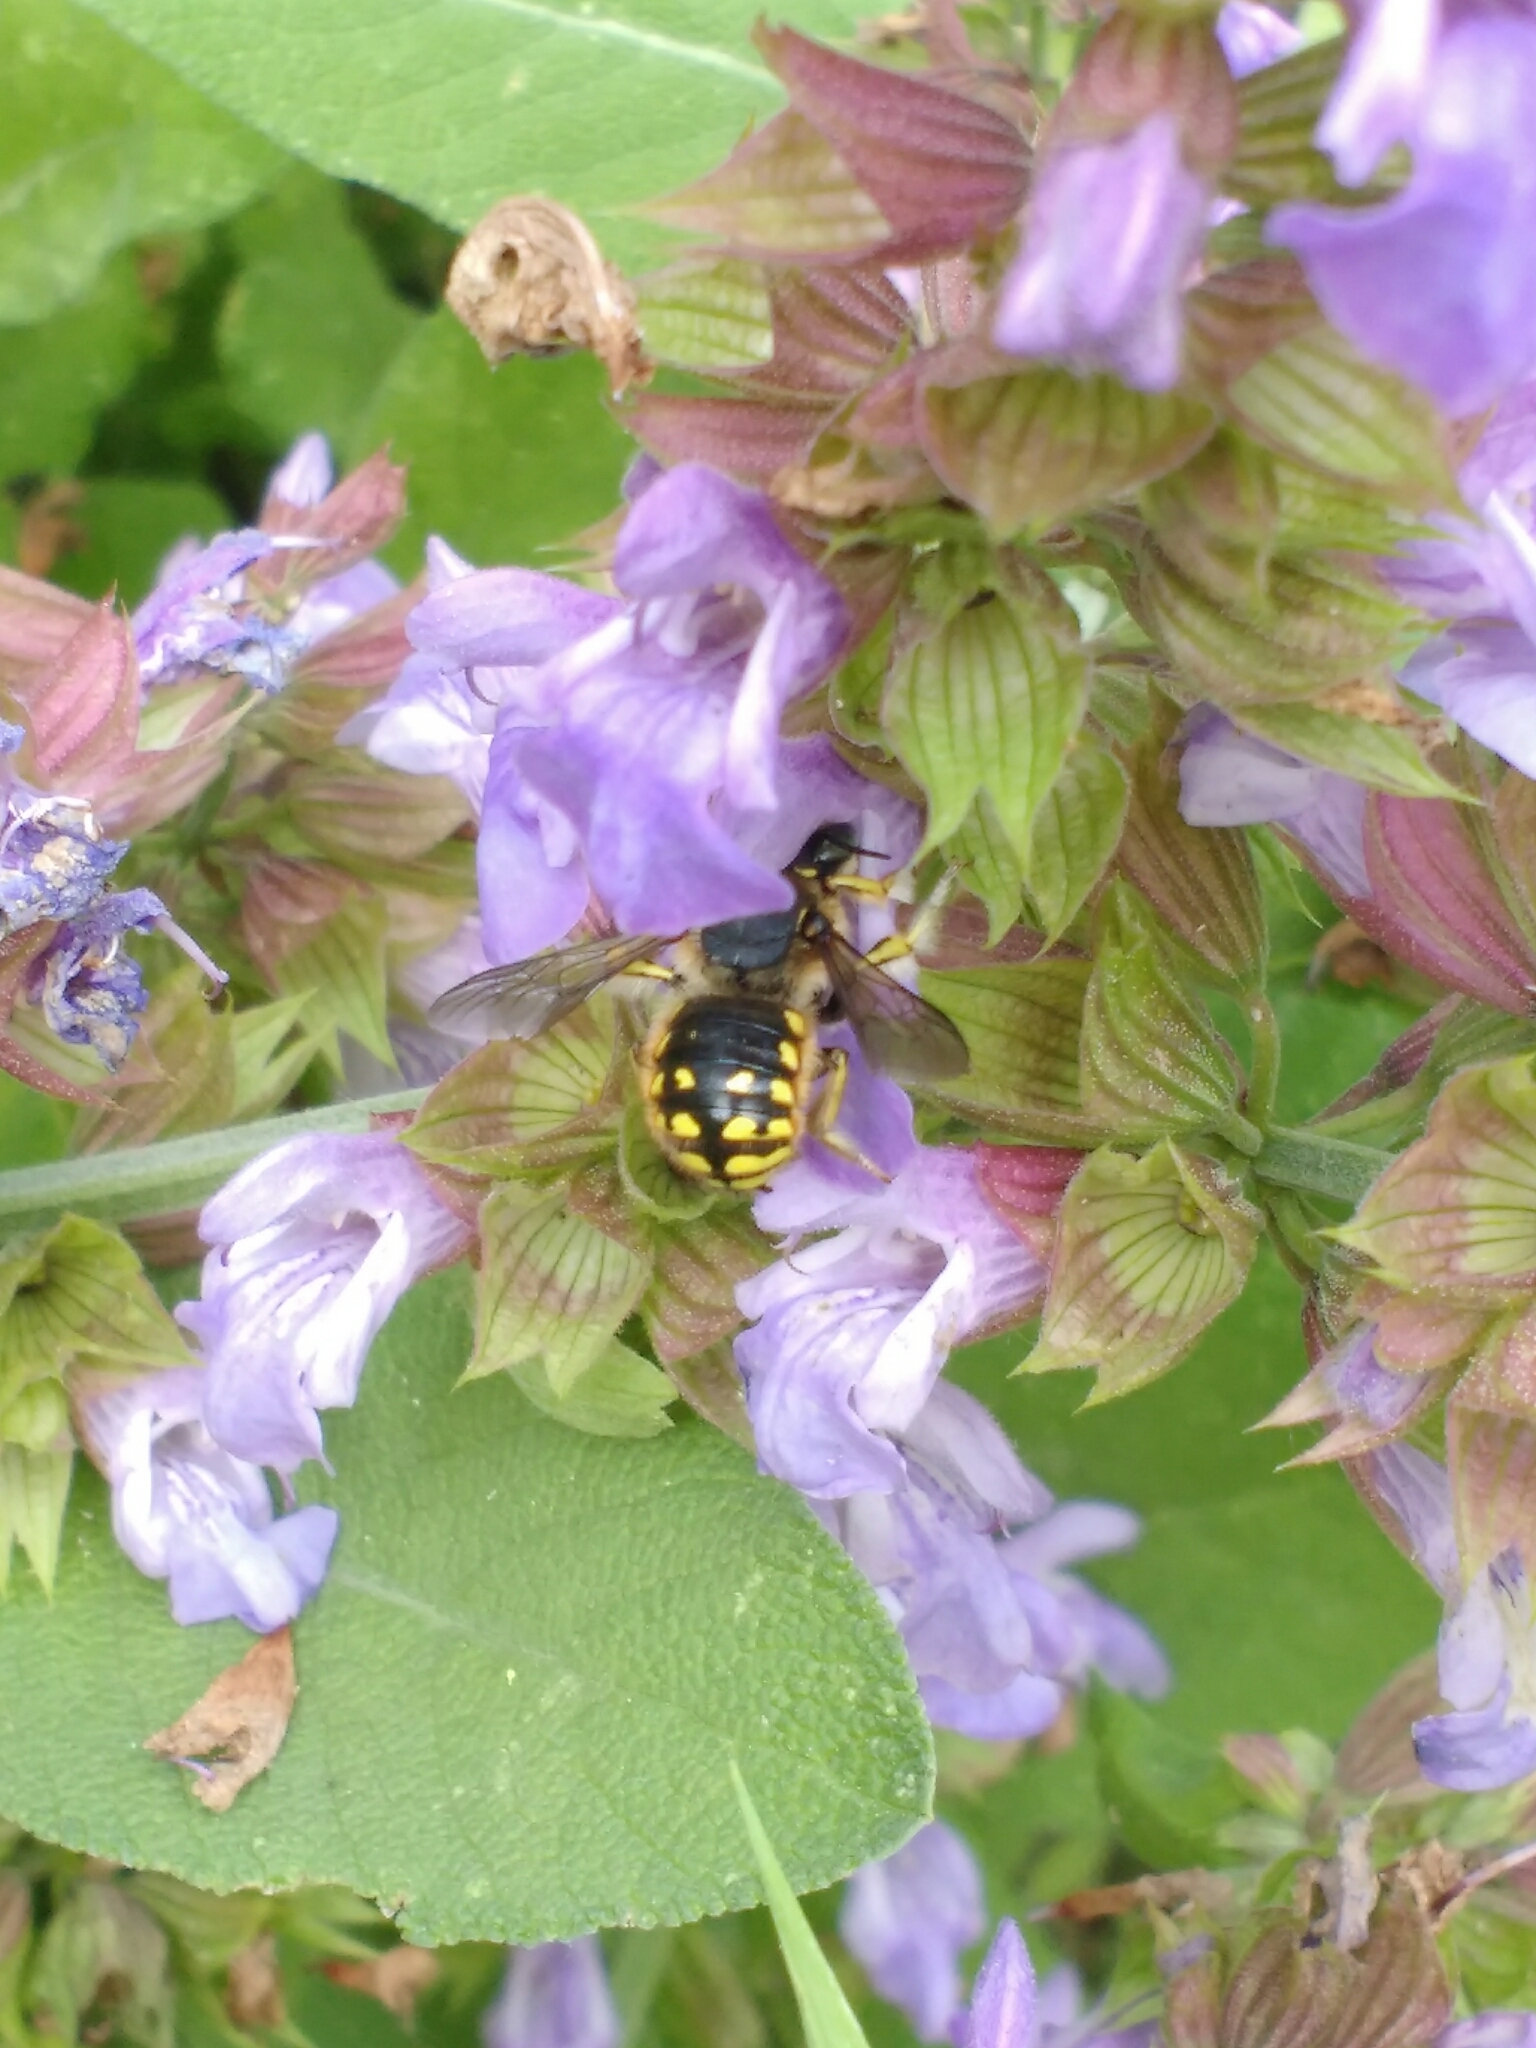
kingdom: Animalia
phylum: Arthropoda
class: Insecta
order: Hymenoptera
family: Megachilidae
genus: Anthidium
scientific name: Anthidium manicatum
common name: Wool carder bee
